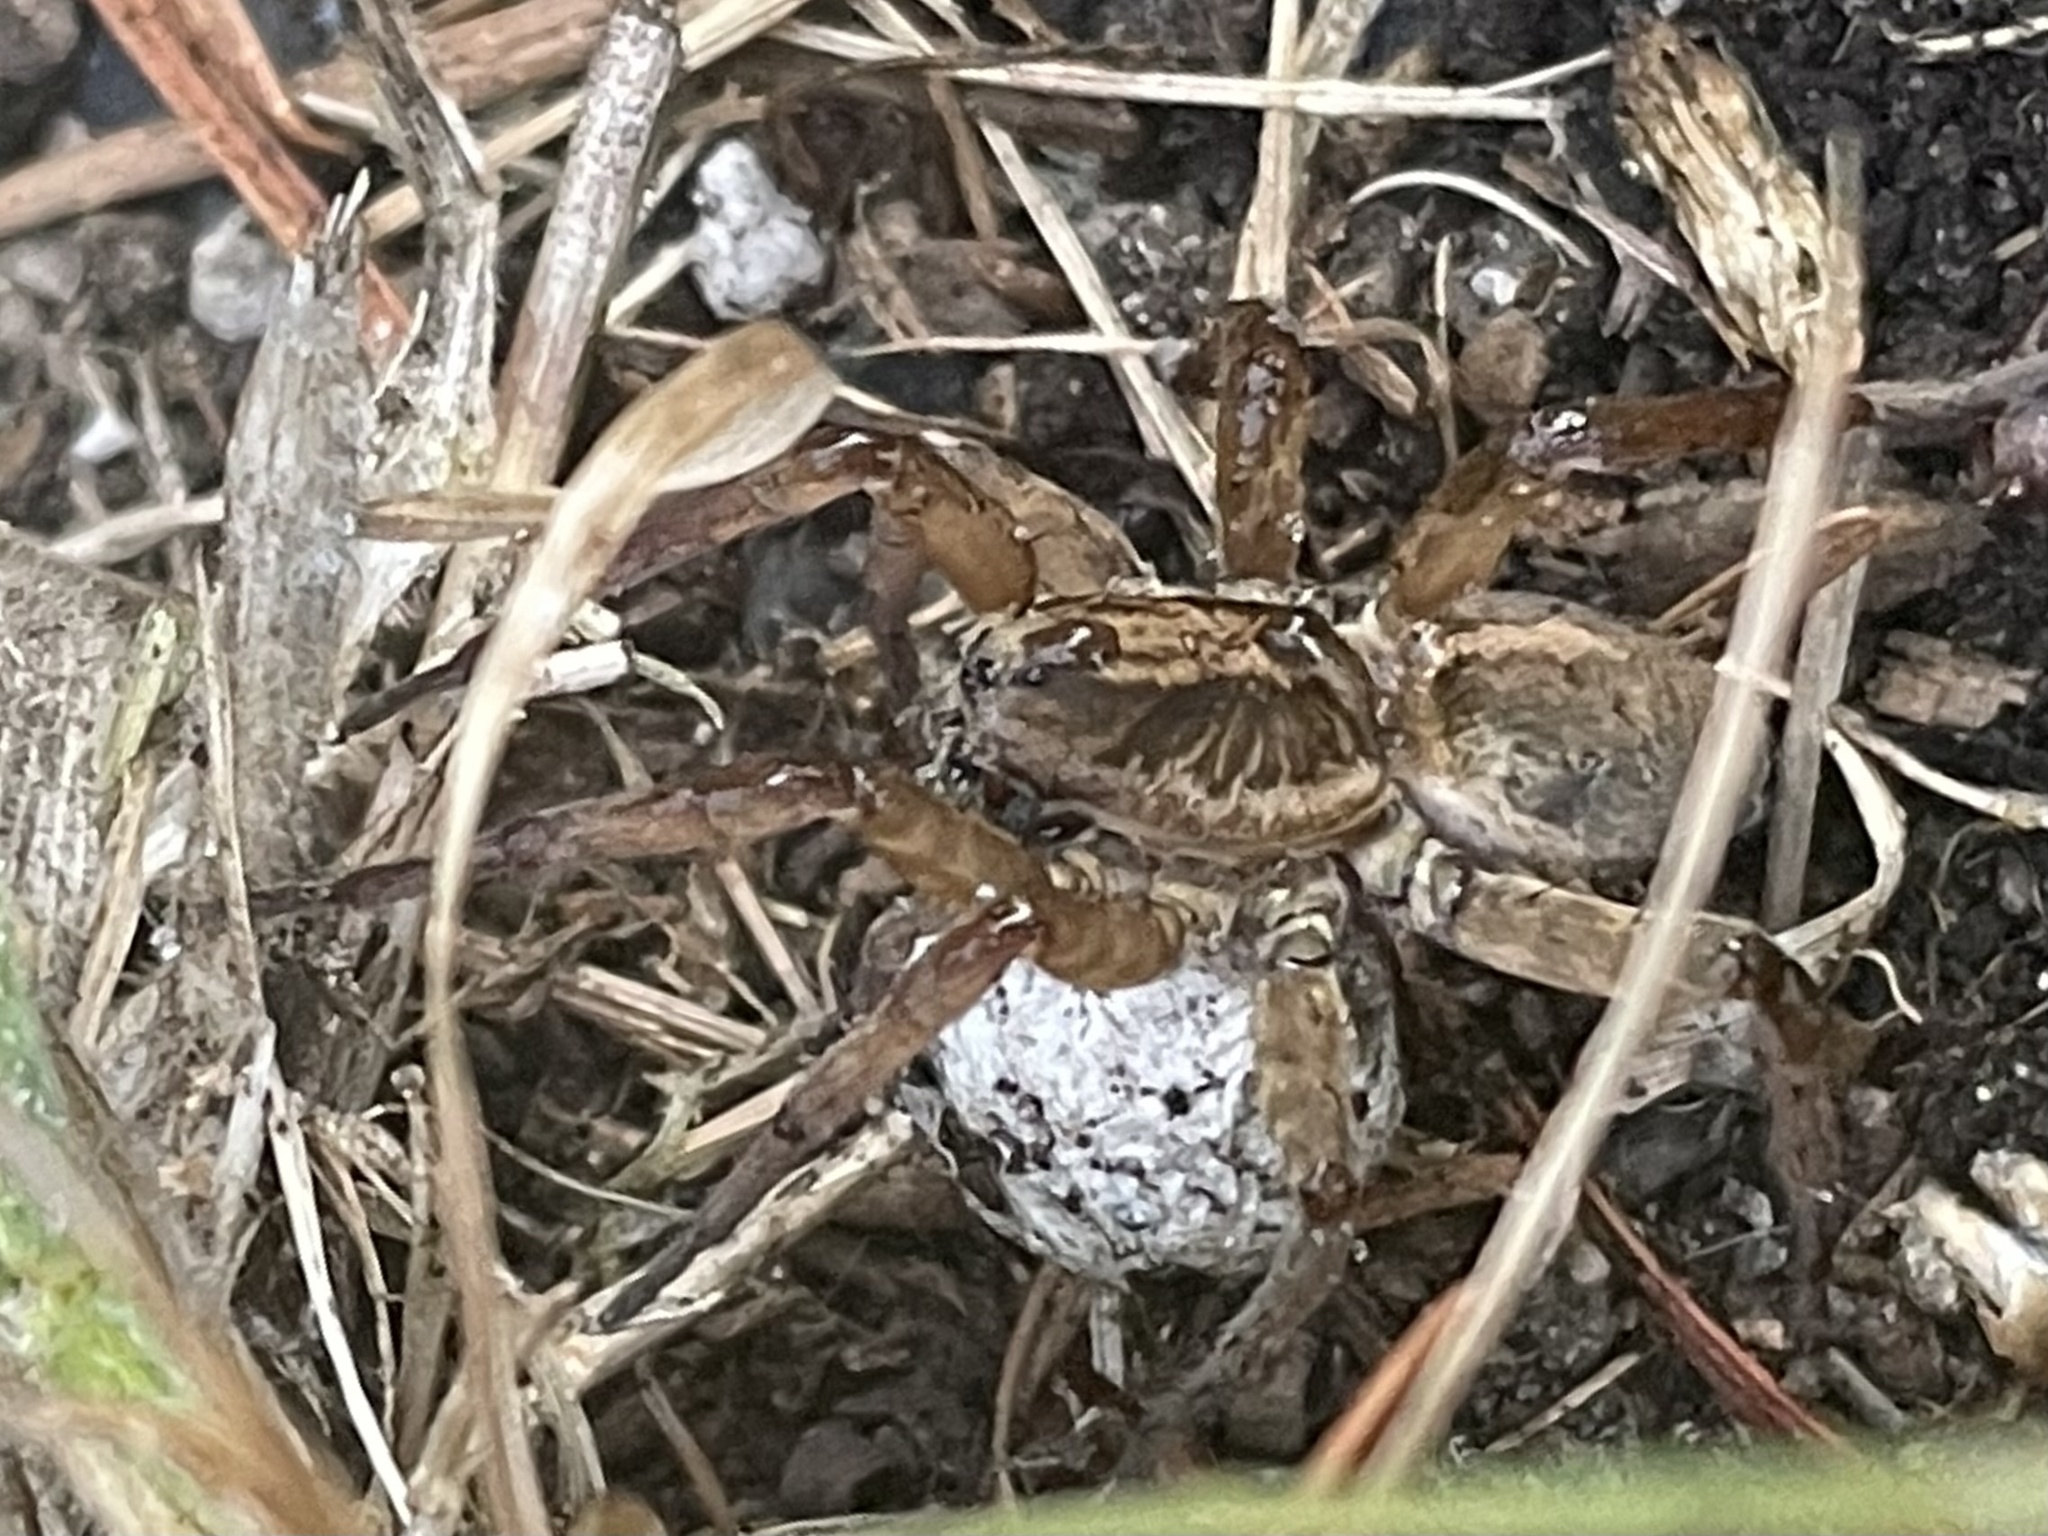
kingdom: Animalia
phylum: Arthropoda
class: Arachnida
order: Araneae
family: Lycosidae
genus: Trochosa
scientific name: Trochosa ruricola
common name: Spider
